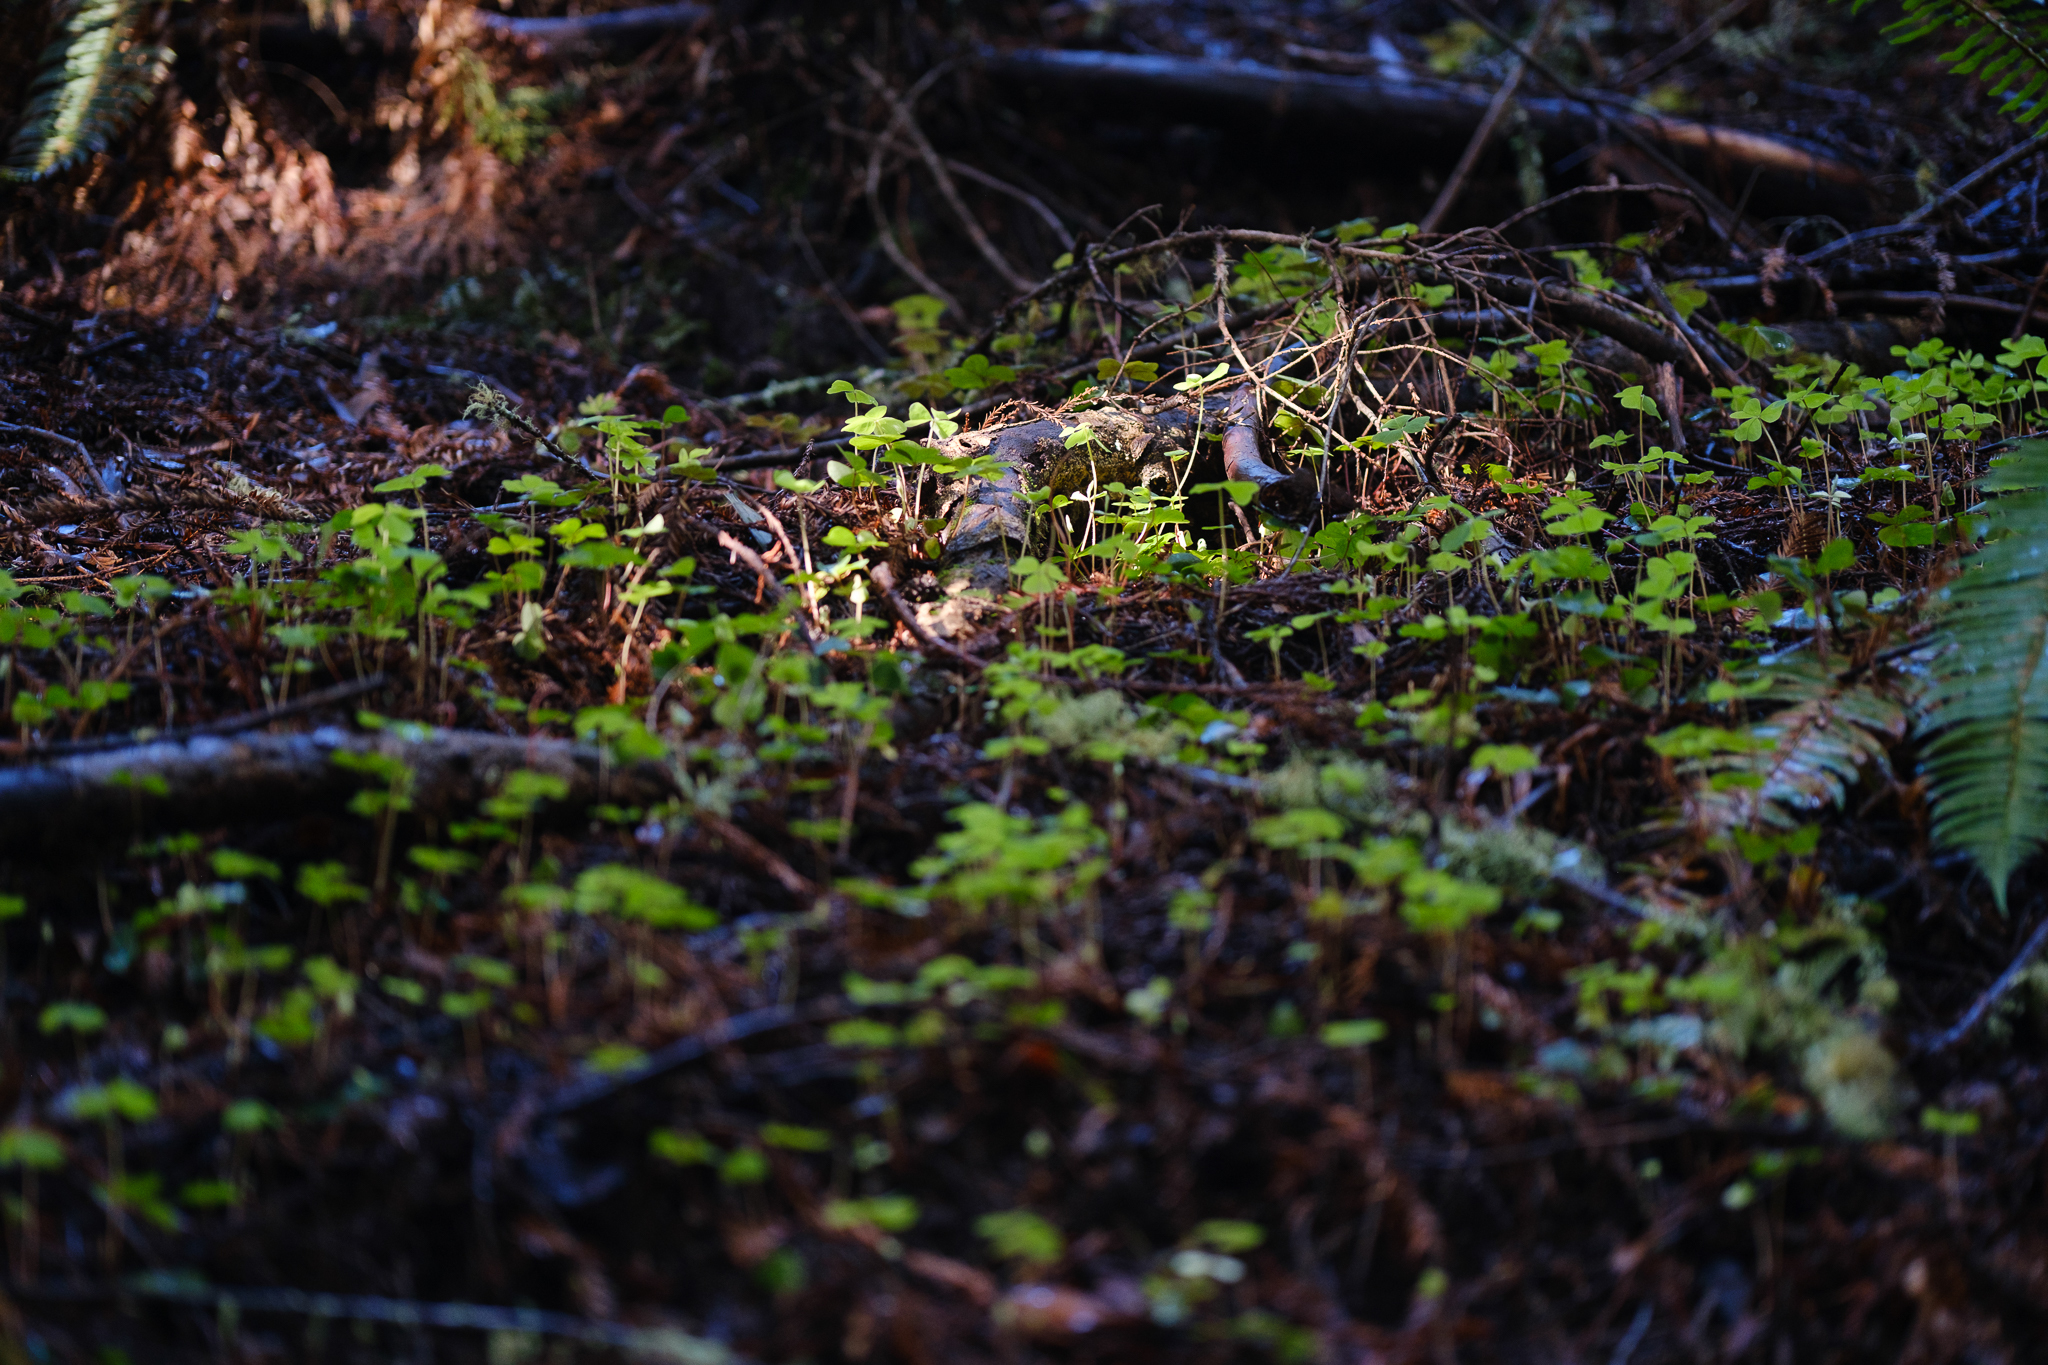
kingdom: Plantae
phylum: Tracheophyta
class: Magnoliopsida
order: Oxalidales
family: Oxalidaceae
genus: Oxalis
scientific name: Oxalis oregana
